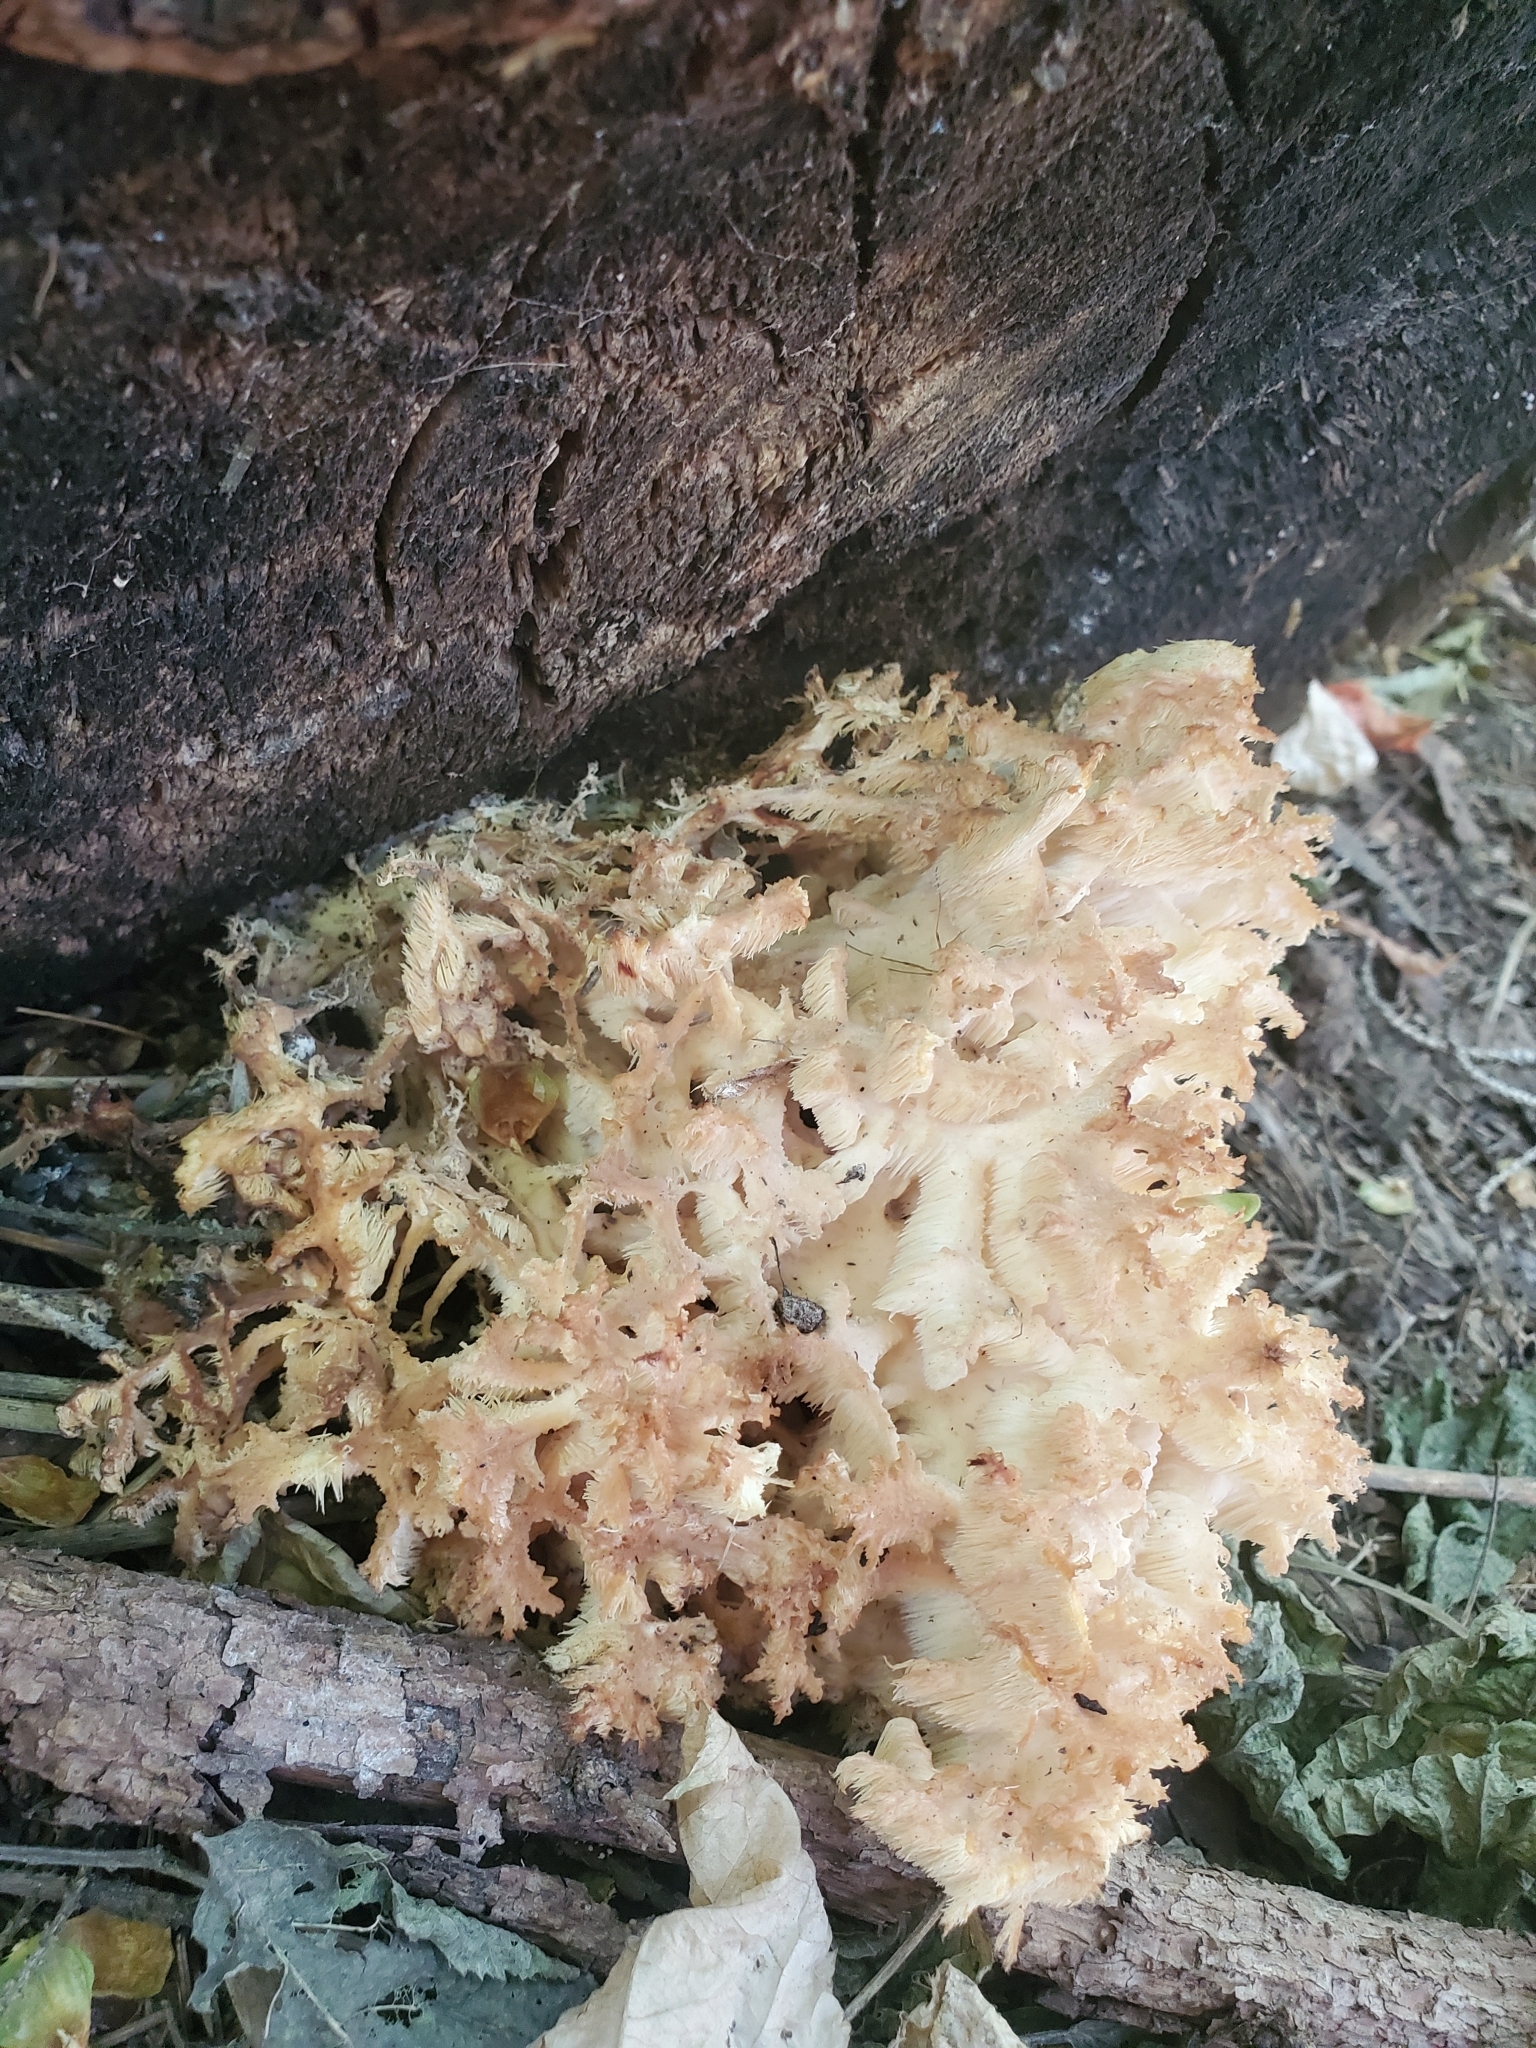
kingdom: Fungi
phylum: Basidiomycota
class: Agaricomycetes
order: Russulales
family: Hericiaceae
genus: Hericium
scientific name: Hericium coralloides
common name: Coral tooth
